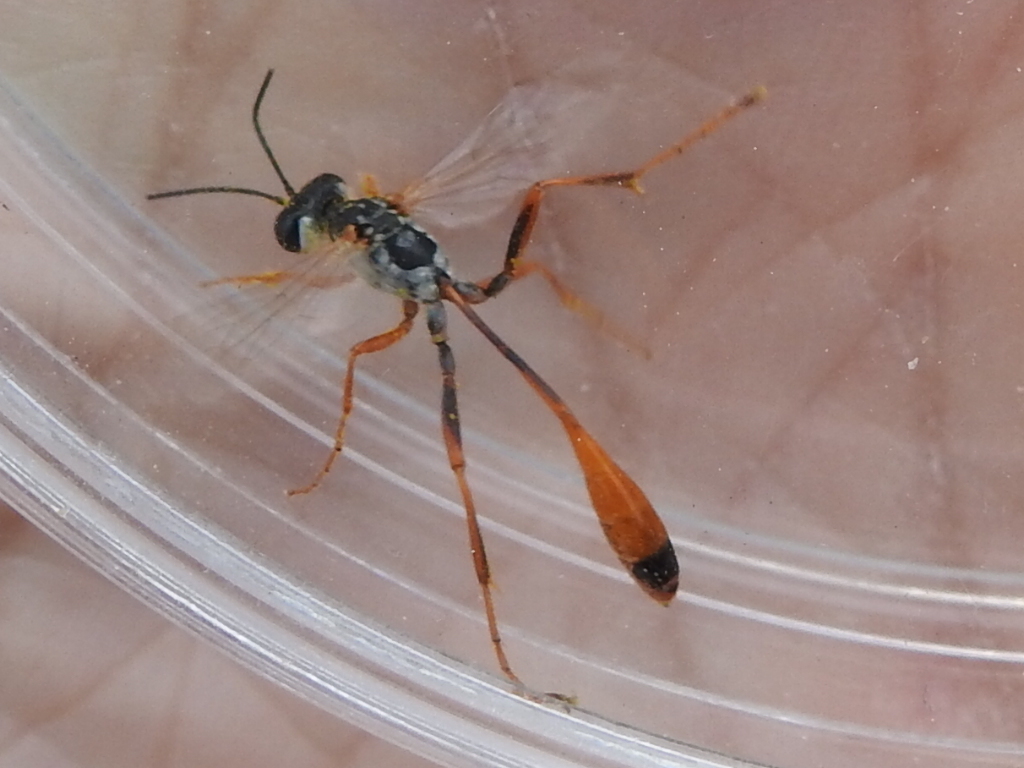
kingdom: Animalia
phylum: Arthropoda
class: Insecta
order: Hymenoptera
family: Sphecidae
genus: Ammophila
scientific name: Ammophila
